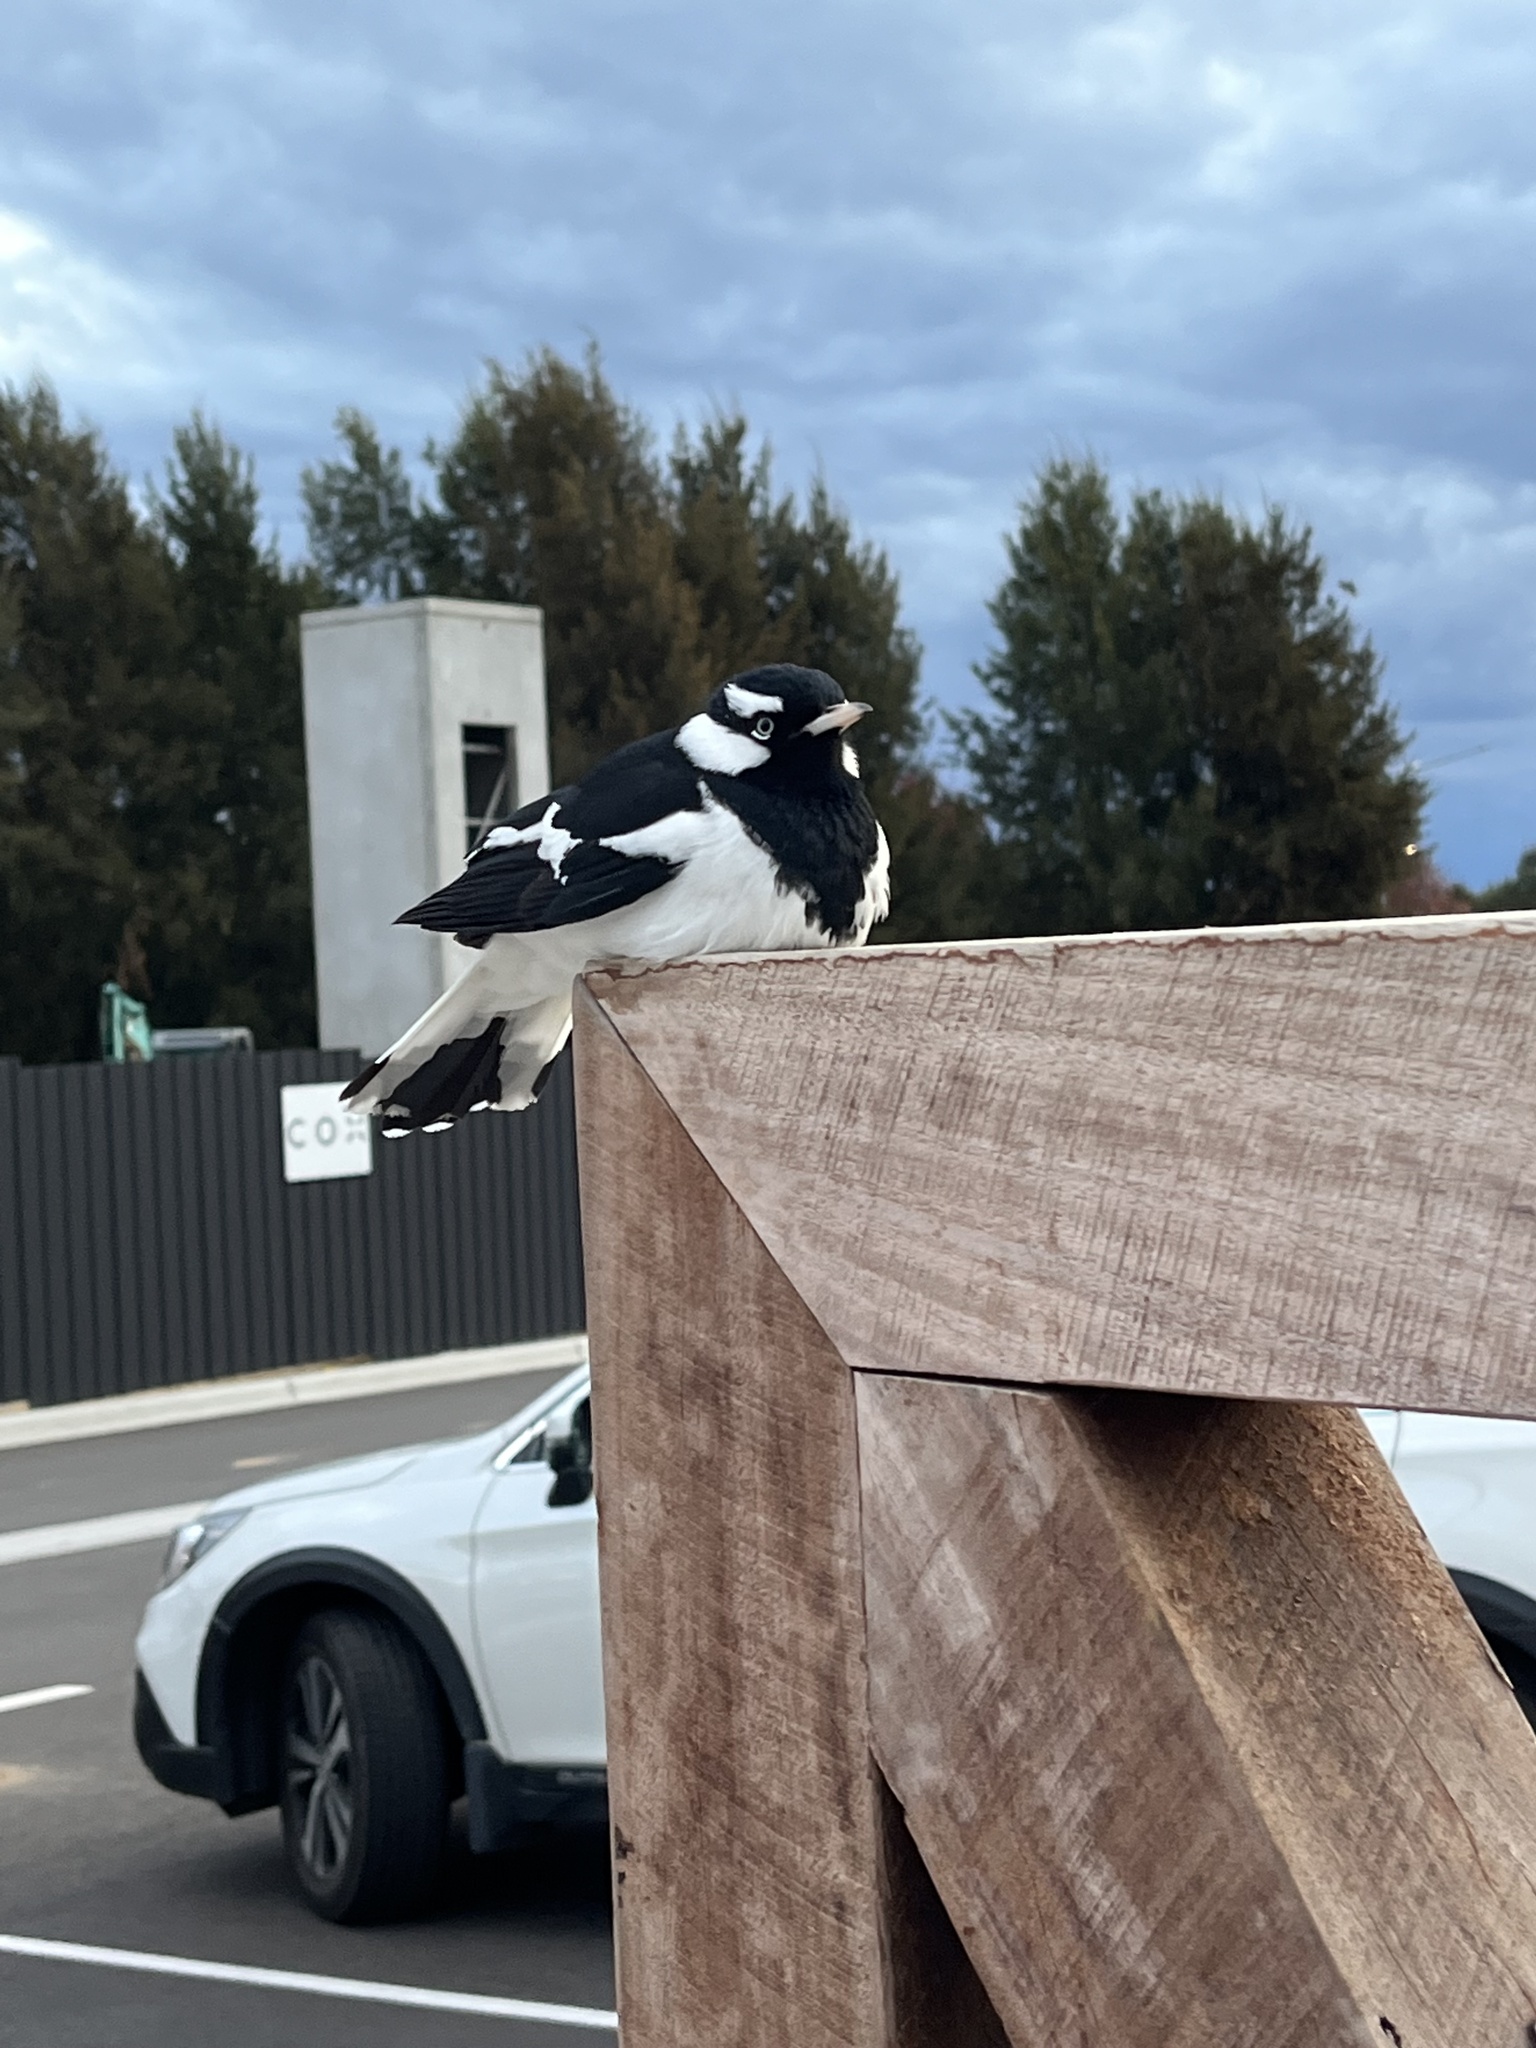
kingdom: Animalia
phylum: Chordata
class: Aves
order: Passeriformes
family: Monarchidae
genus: Grallina
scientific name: Grallina cyanoleuca
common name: Magpie-lark
